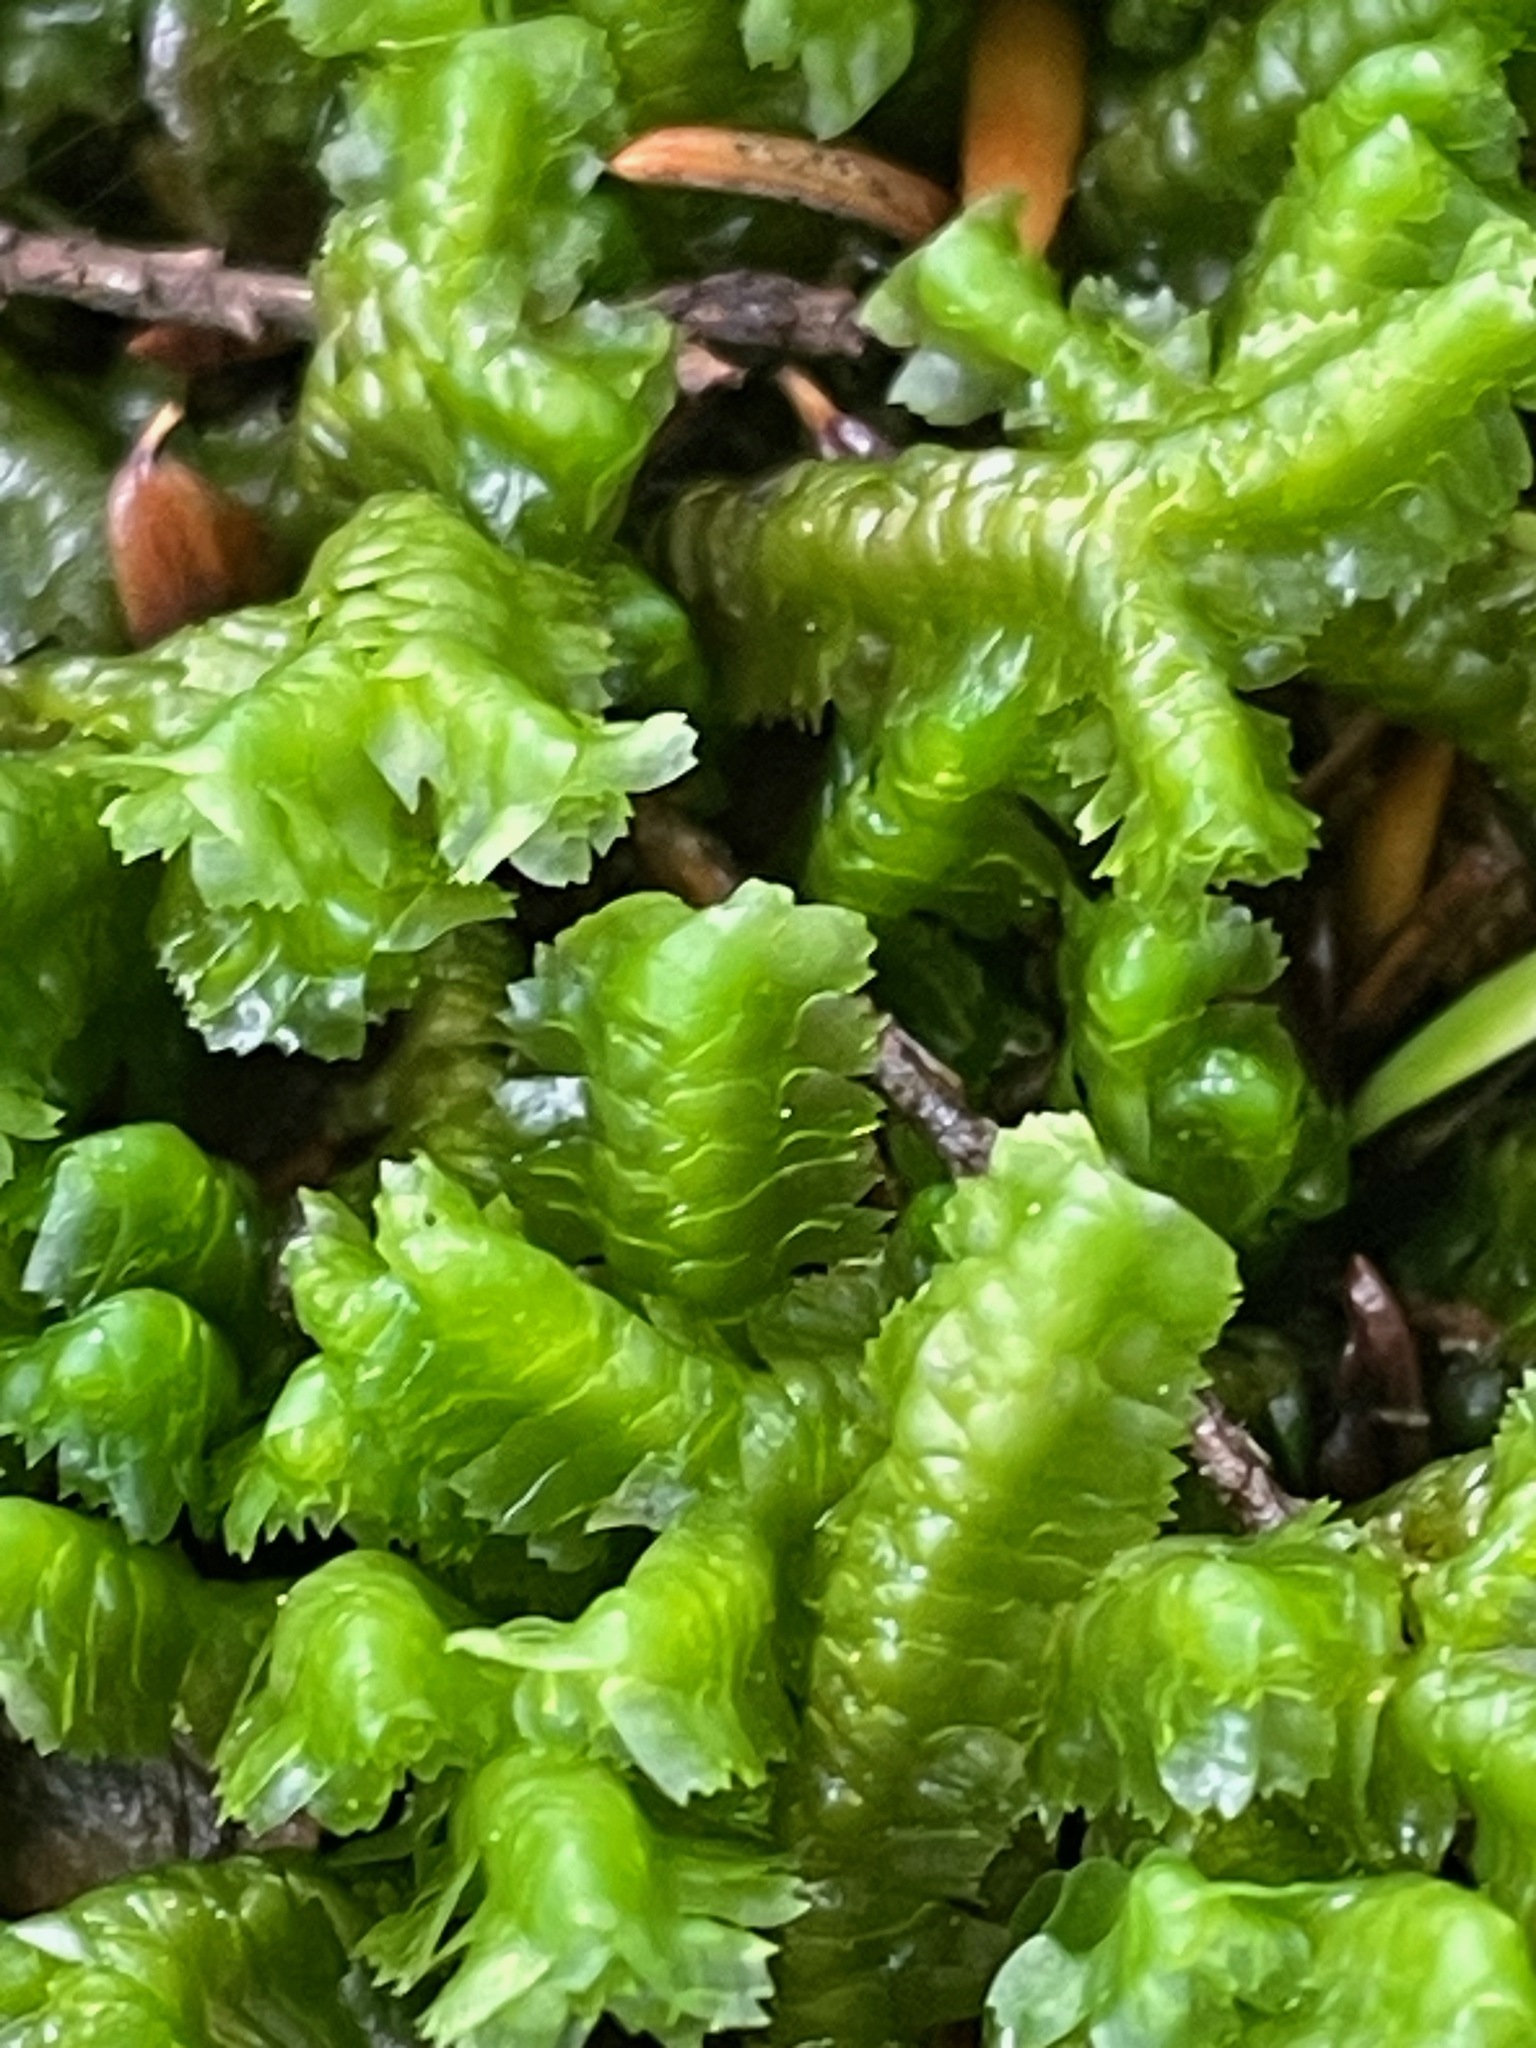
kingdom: Plantae
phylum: Marchantiophyta
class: Jungermanniopsida
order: Jungermanniales
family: Lepidoziaceae
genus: Bazzania
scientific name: Bazzania trilobata
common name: Three-lobed whipwort
